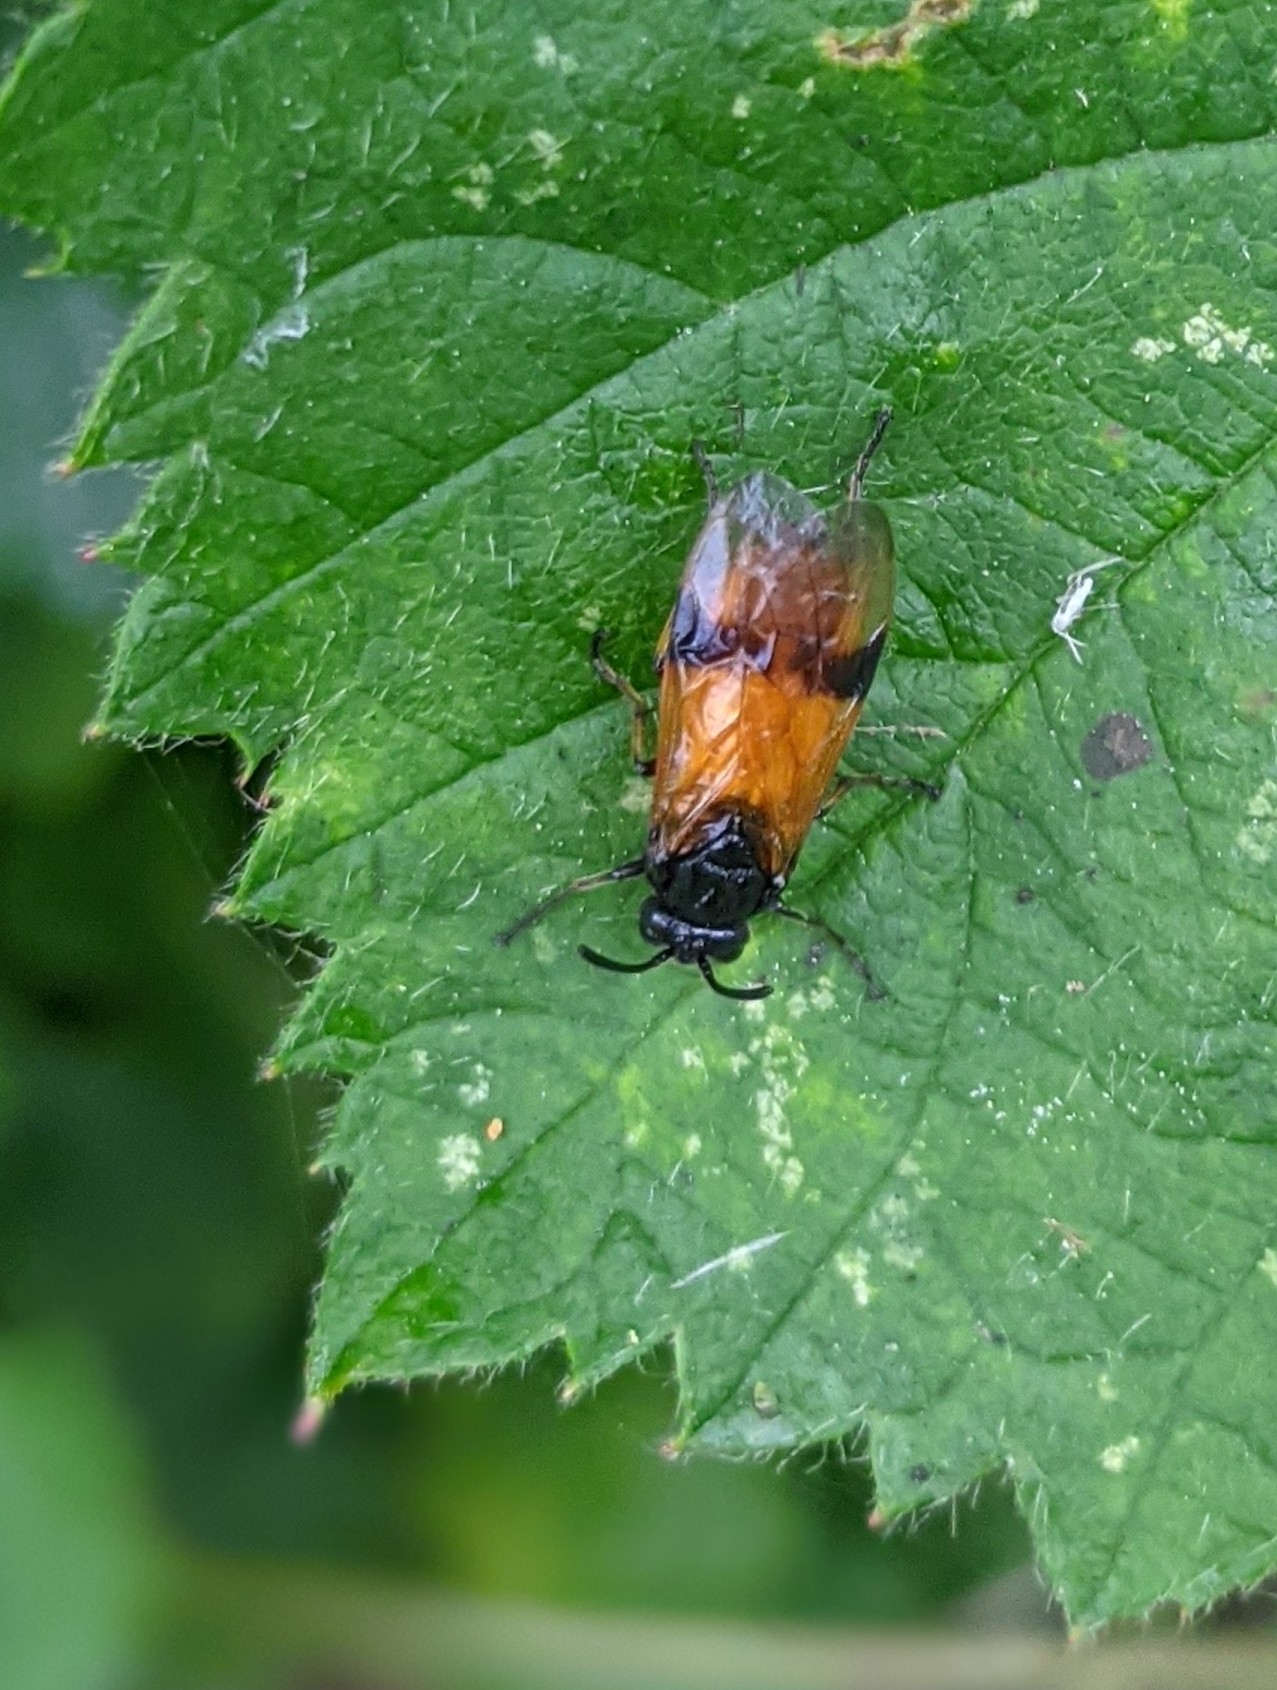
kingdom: Animalia
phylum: Arthropoda
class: Insecta
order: Hymenoptera
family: Argidae
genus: Arge
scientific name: Arge cyanocrocea
